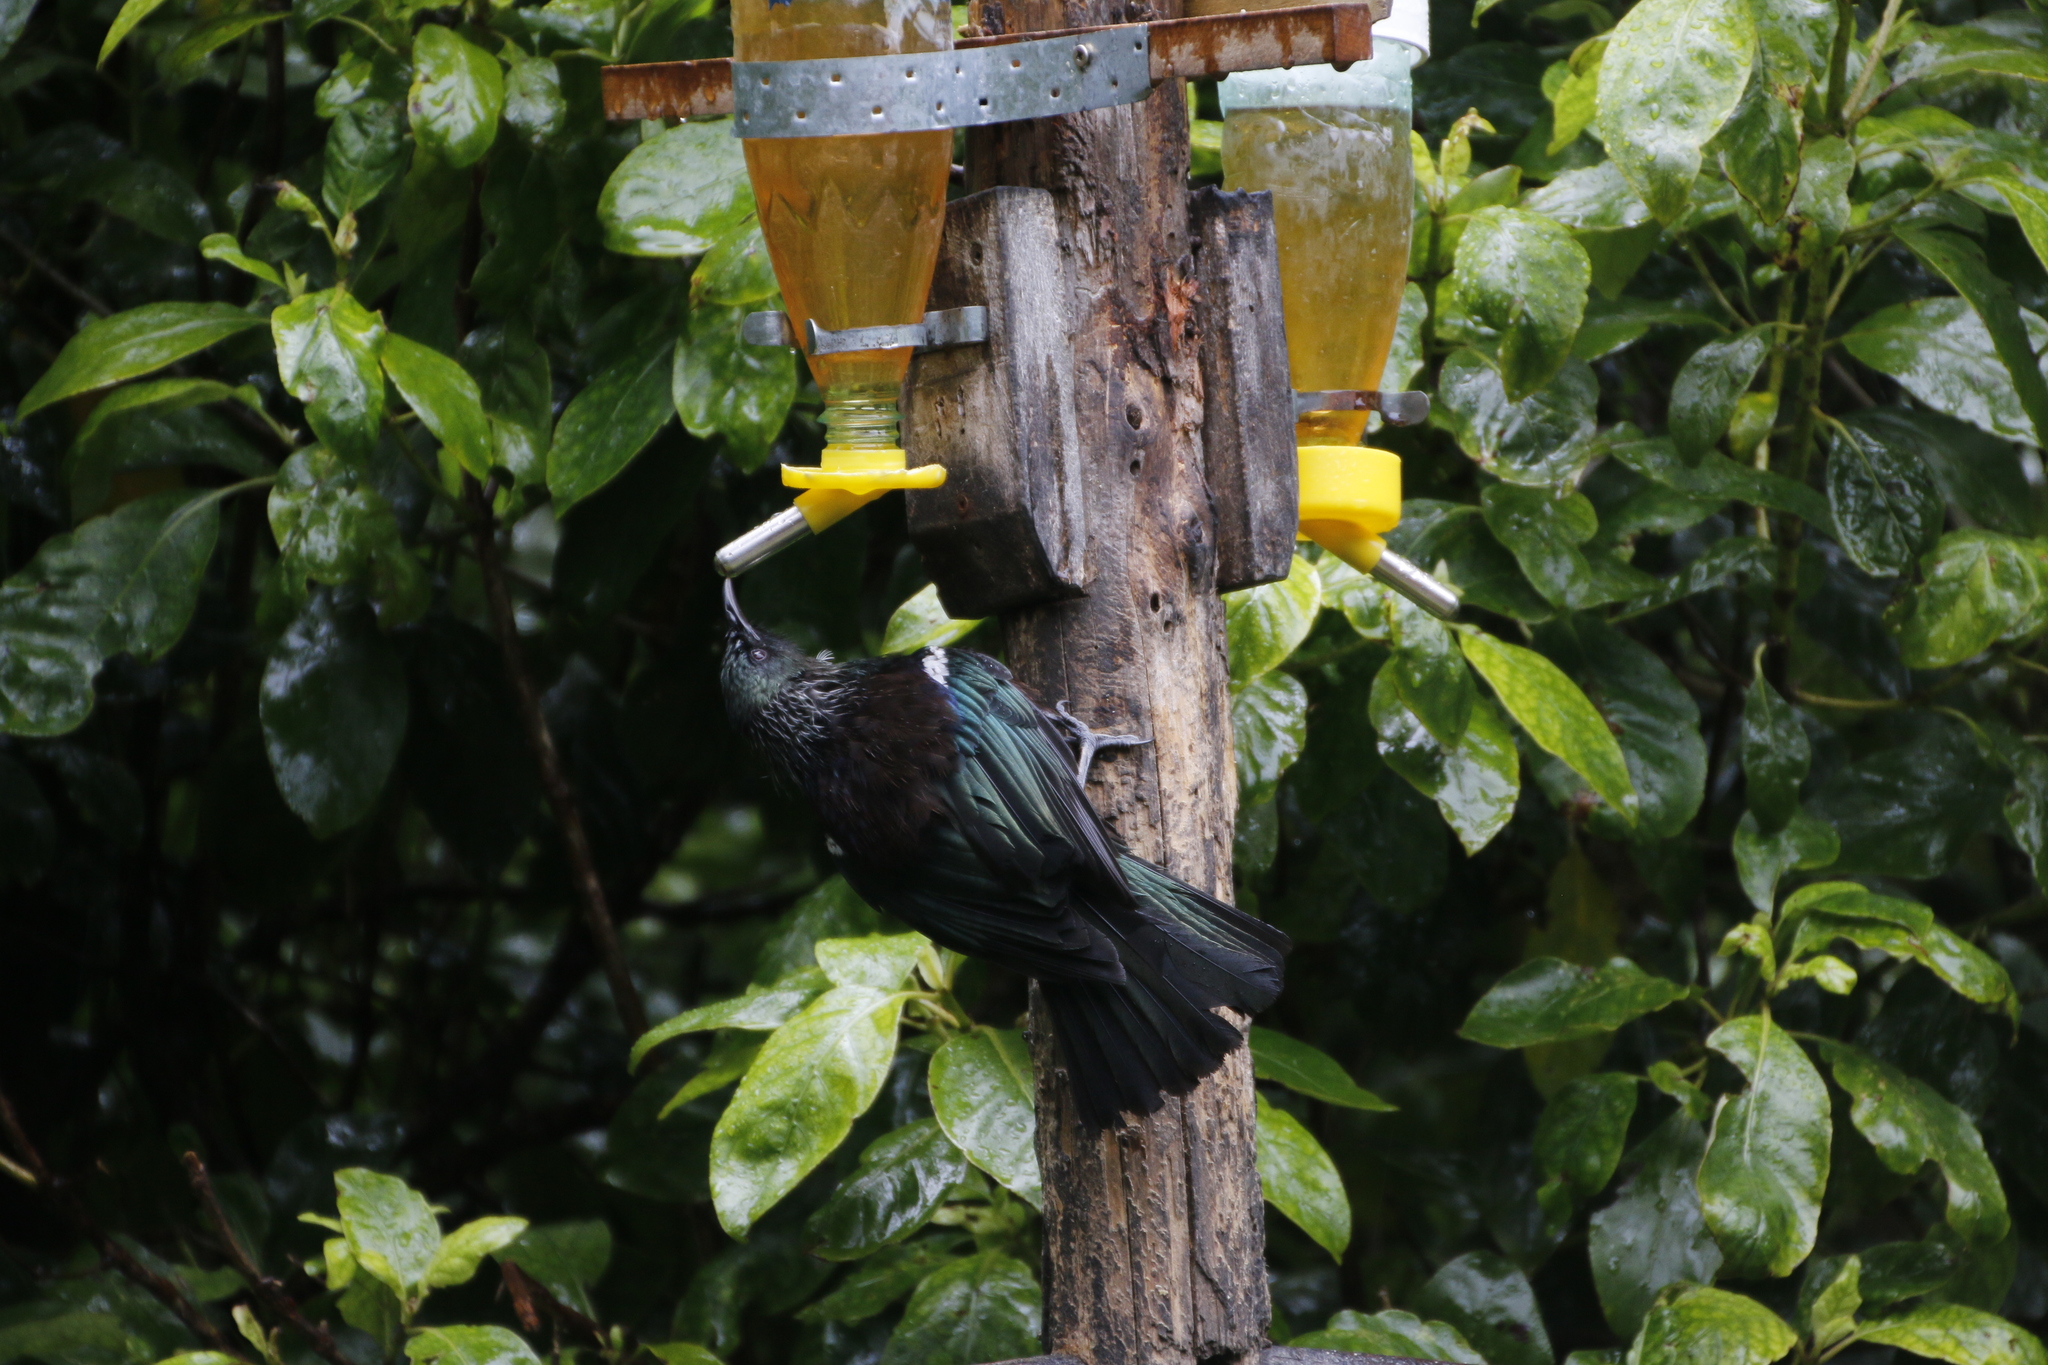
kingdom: Animalia
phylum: Chordata
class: Aves
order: Passeriformes
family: Meliphagidae
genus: Prosthemadera
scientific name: Prosthemadera novaeseelandiae
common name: Tui
